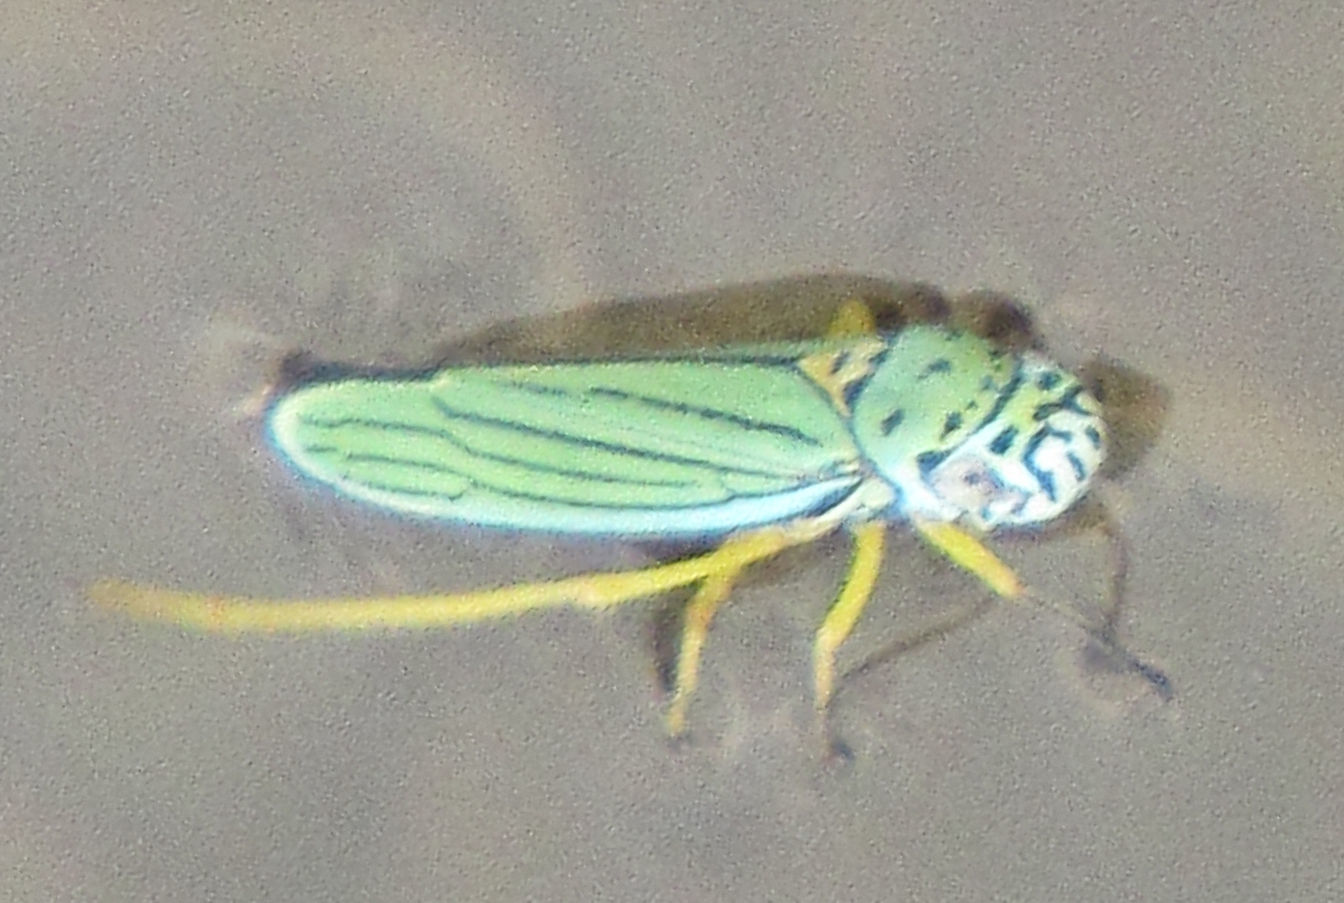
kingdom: Animalia
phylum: Arthropoda
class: Insecta
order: Hemiptera
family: Cicadellidae
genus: Graphocephala
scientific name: Graphocephala atropunctata
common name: Blue-green sharpshooter
